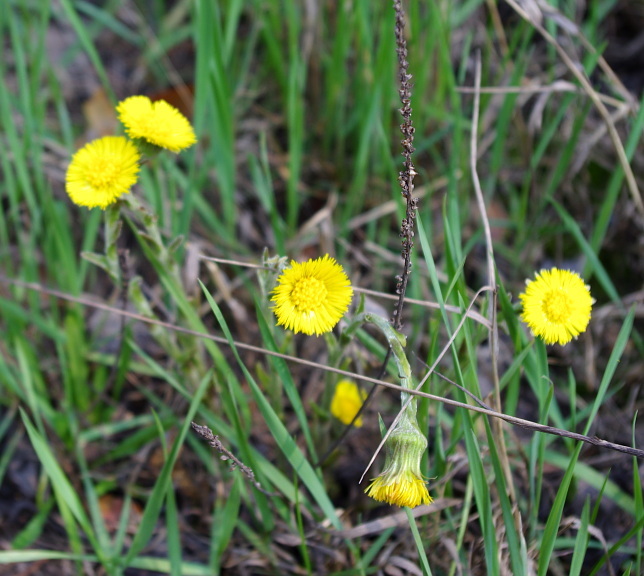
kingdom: Plantae
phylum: Tracheophyta
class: Magnoliopsida
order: Asterales
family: Asteraceae
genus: Tussilago
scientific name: Tussilago farfara
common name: Coltsfoot
